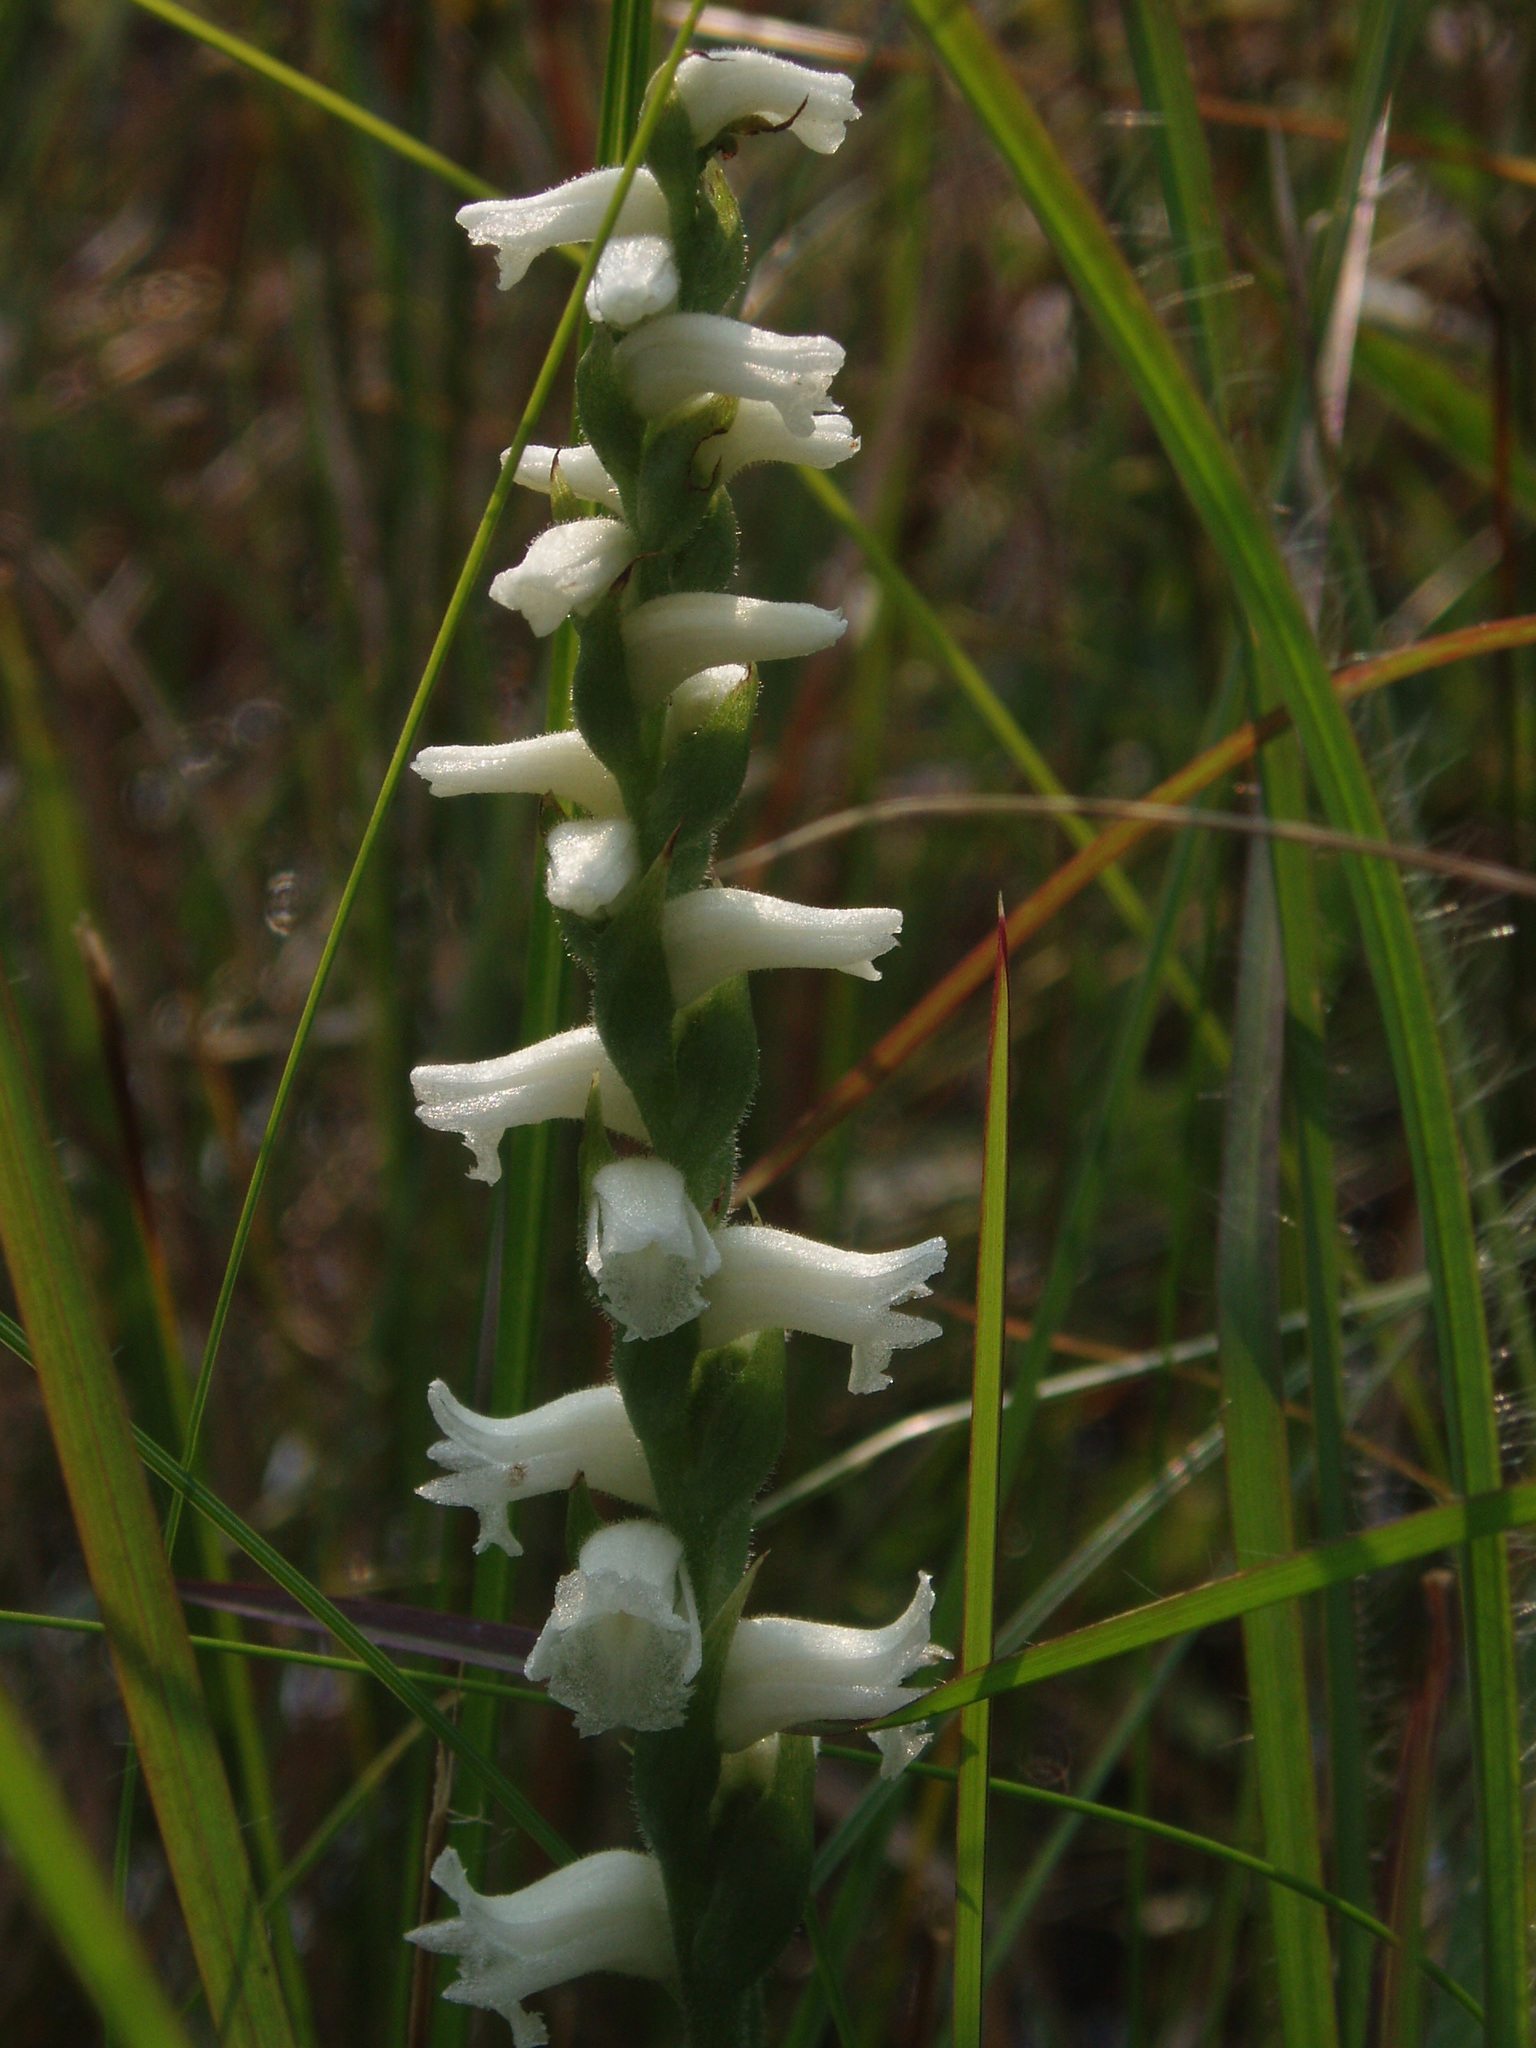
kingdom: Plantae
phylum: Tracheophyta
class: Liliopsida
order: Asparagales
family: Orchidaceae
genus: Spiranthes
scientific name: Spiranthes arcisepala
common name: Appalachian ladies'-tresses
